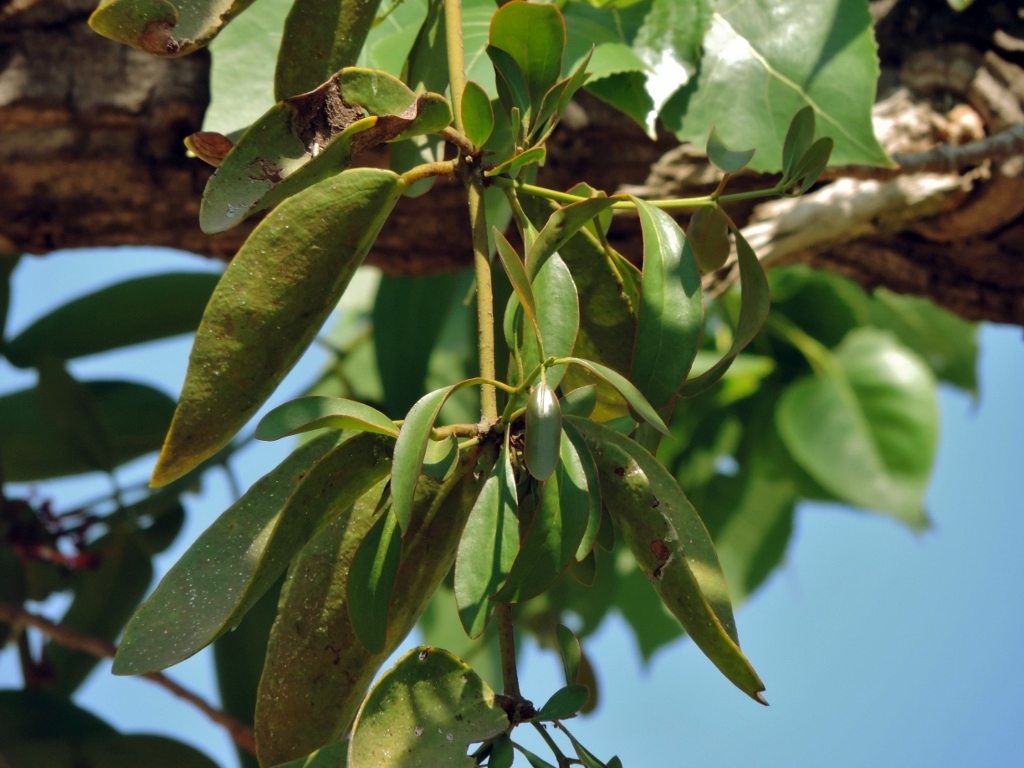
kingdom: Plantae
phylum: Tracheophyta
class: Magnoliopsida
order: Santalales
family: Loranthaceae
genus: Globimetula
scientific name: Globimetula mweroensis
